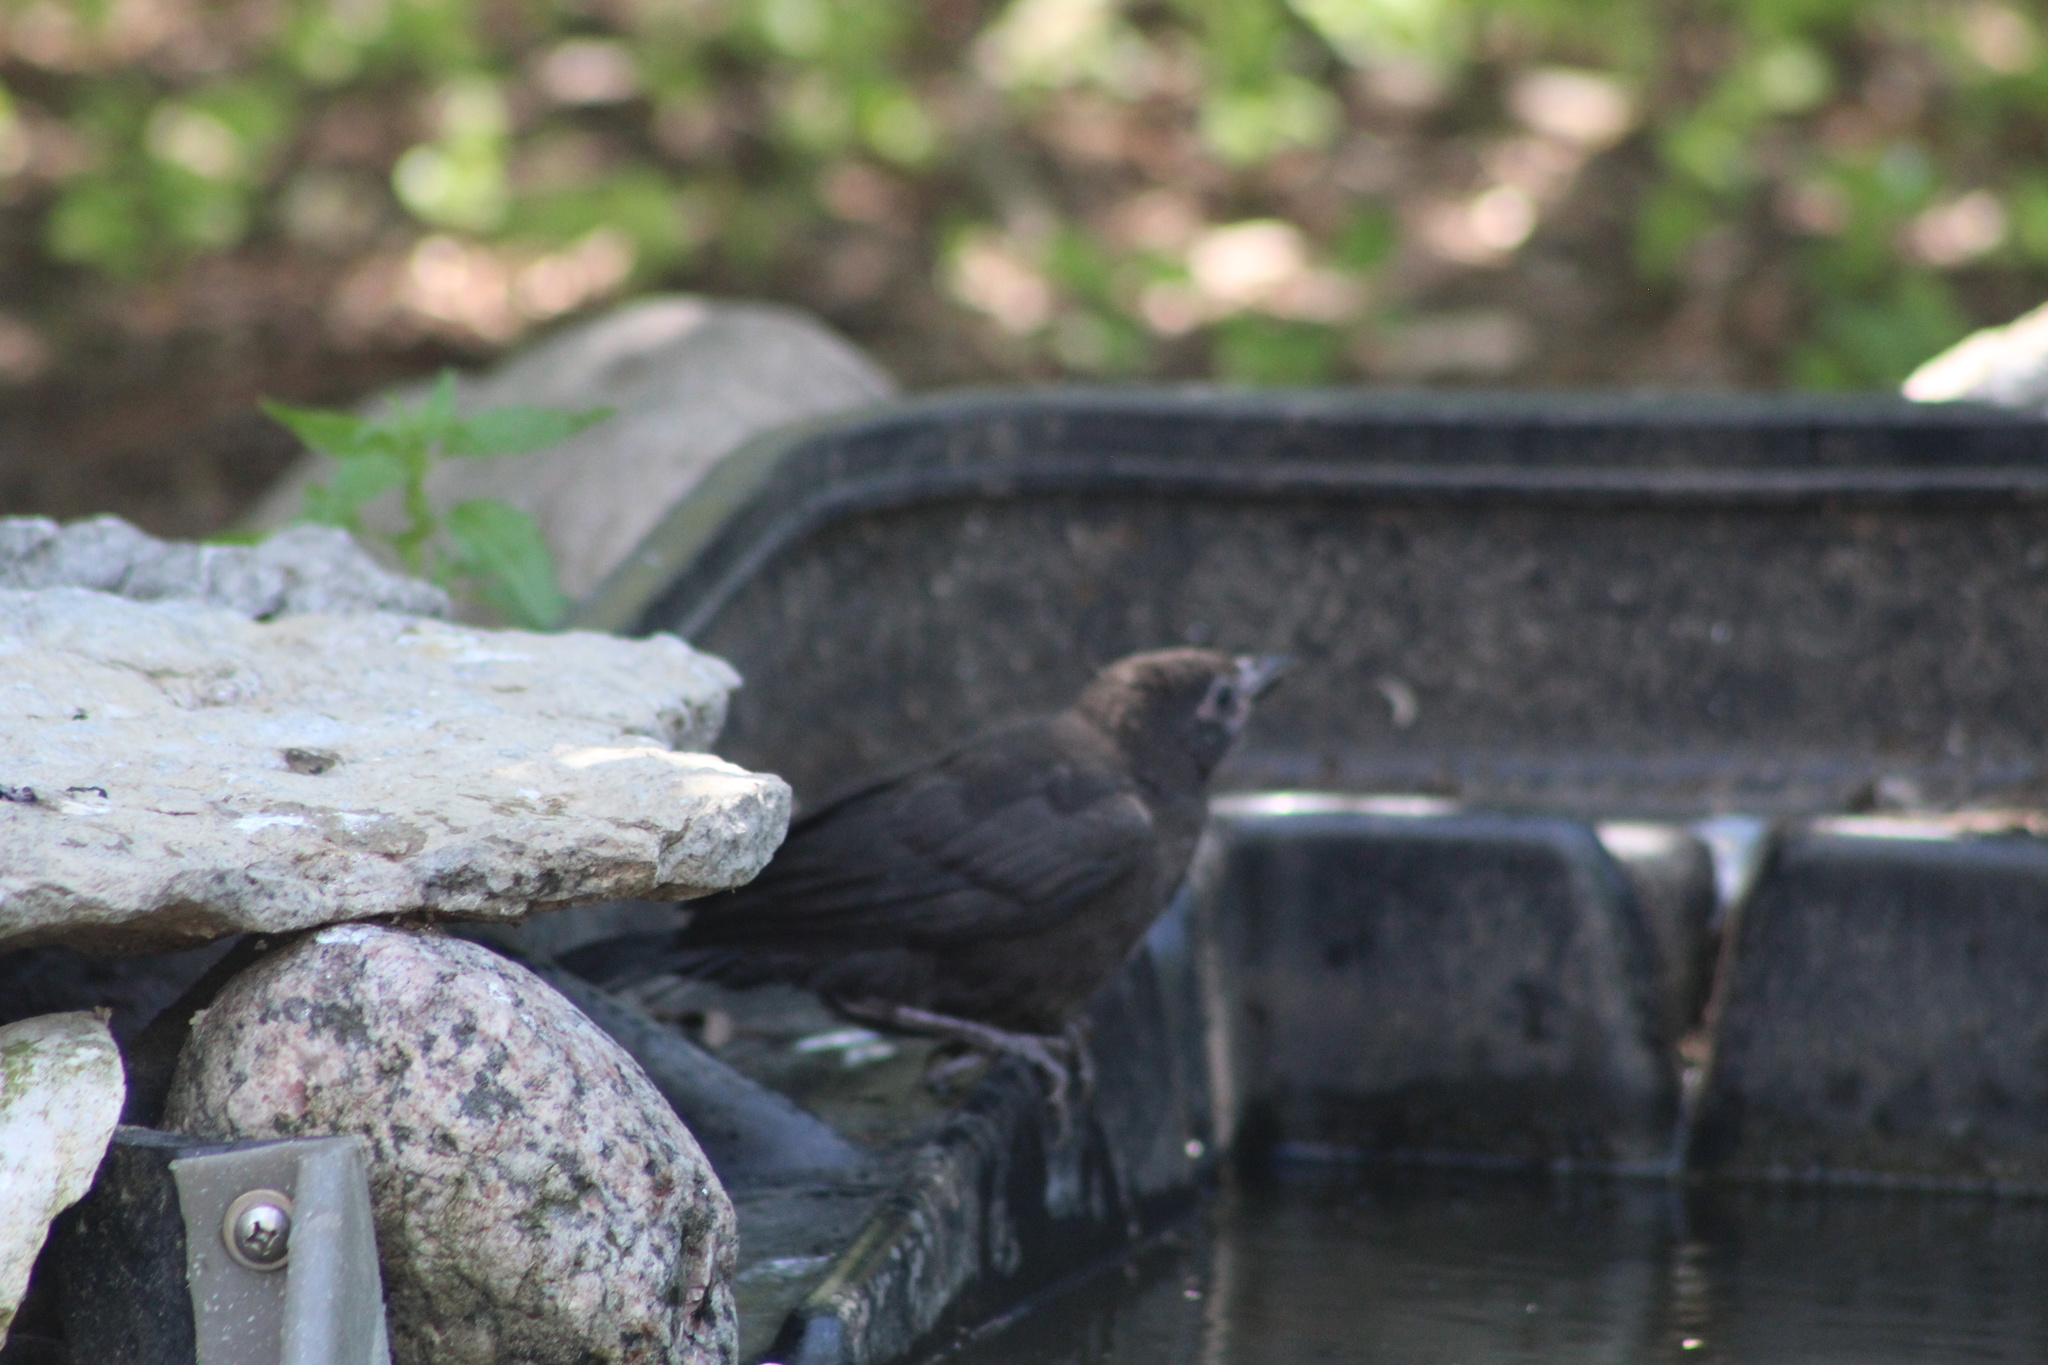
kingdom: Animalia
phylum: Chordata
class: Aves
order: Passeriformes
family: Icteridae
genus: Quiscalus
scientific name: Quiscalus quiscula
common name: Common grackle
